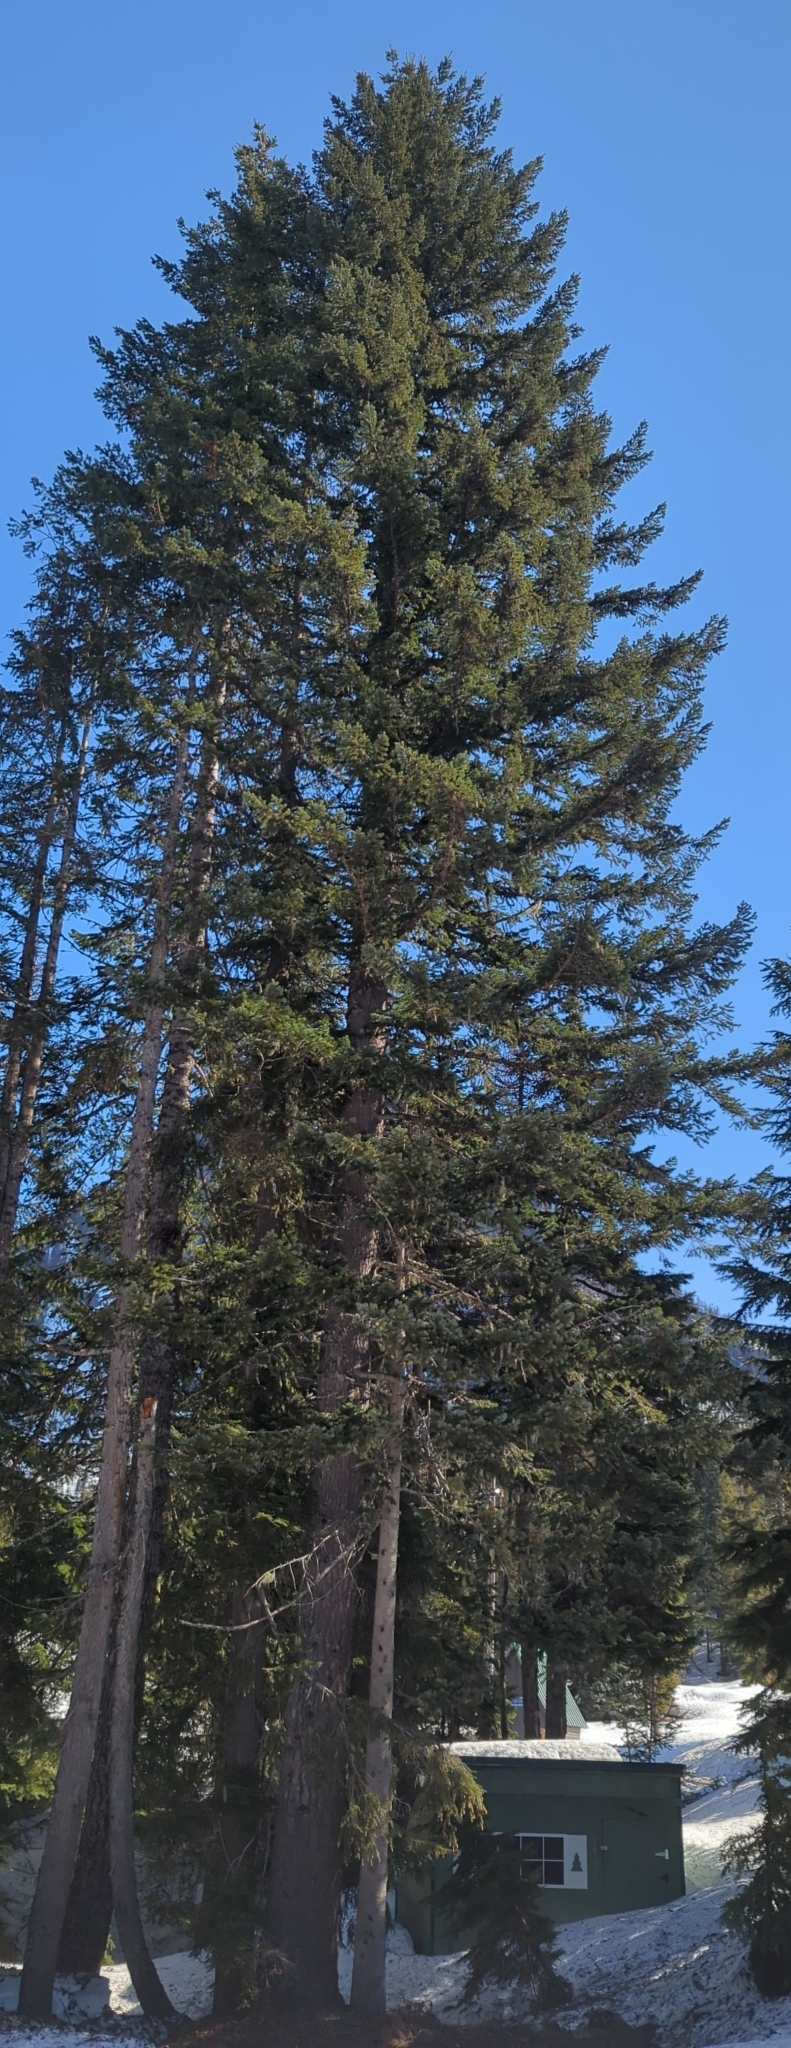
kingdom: Plantae
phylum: Tracheophyta
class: Pinopsida
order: Pinales
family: Pinaceae
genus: Tsuga
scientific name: Tsuga heterophylla
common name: Western hemlock
